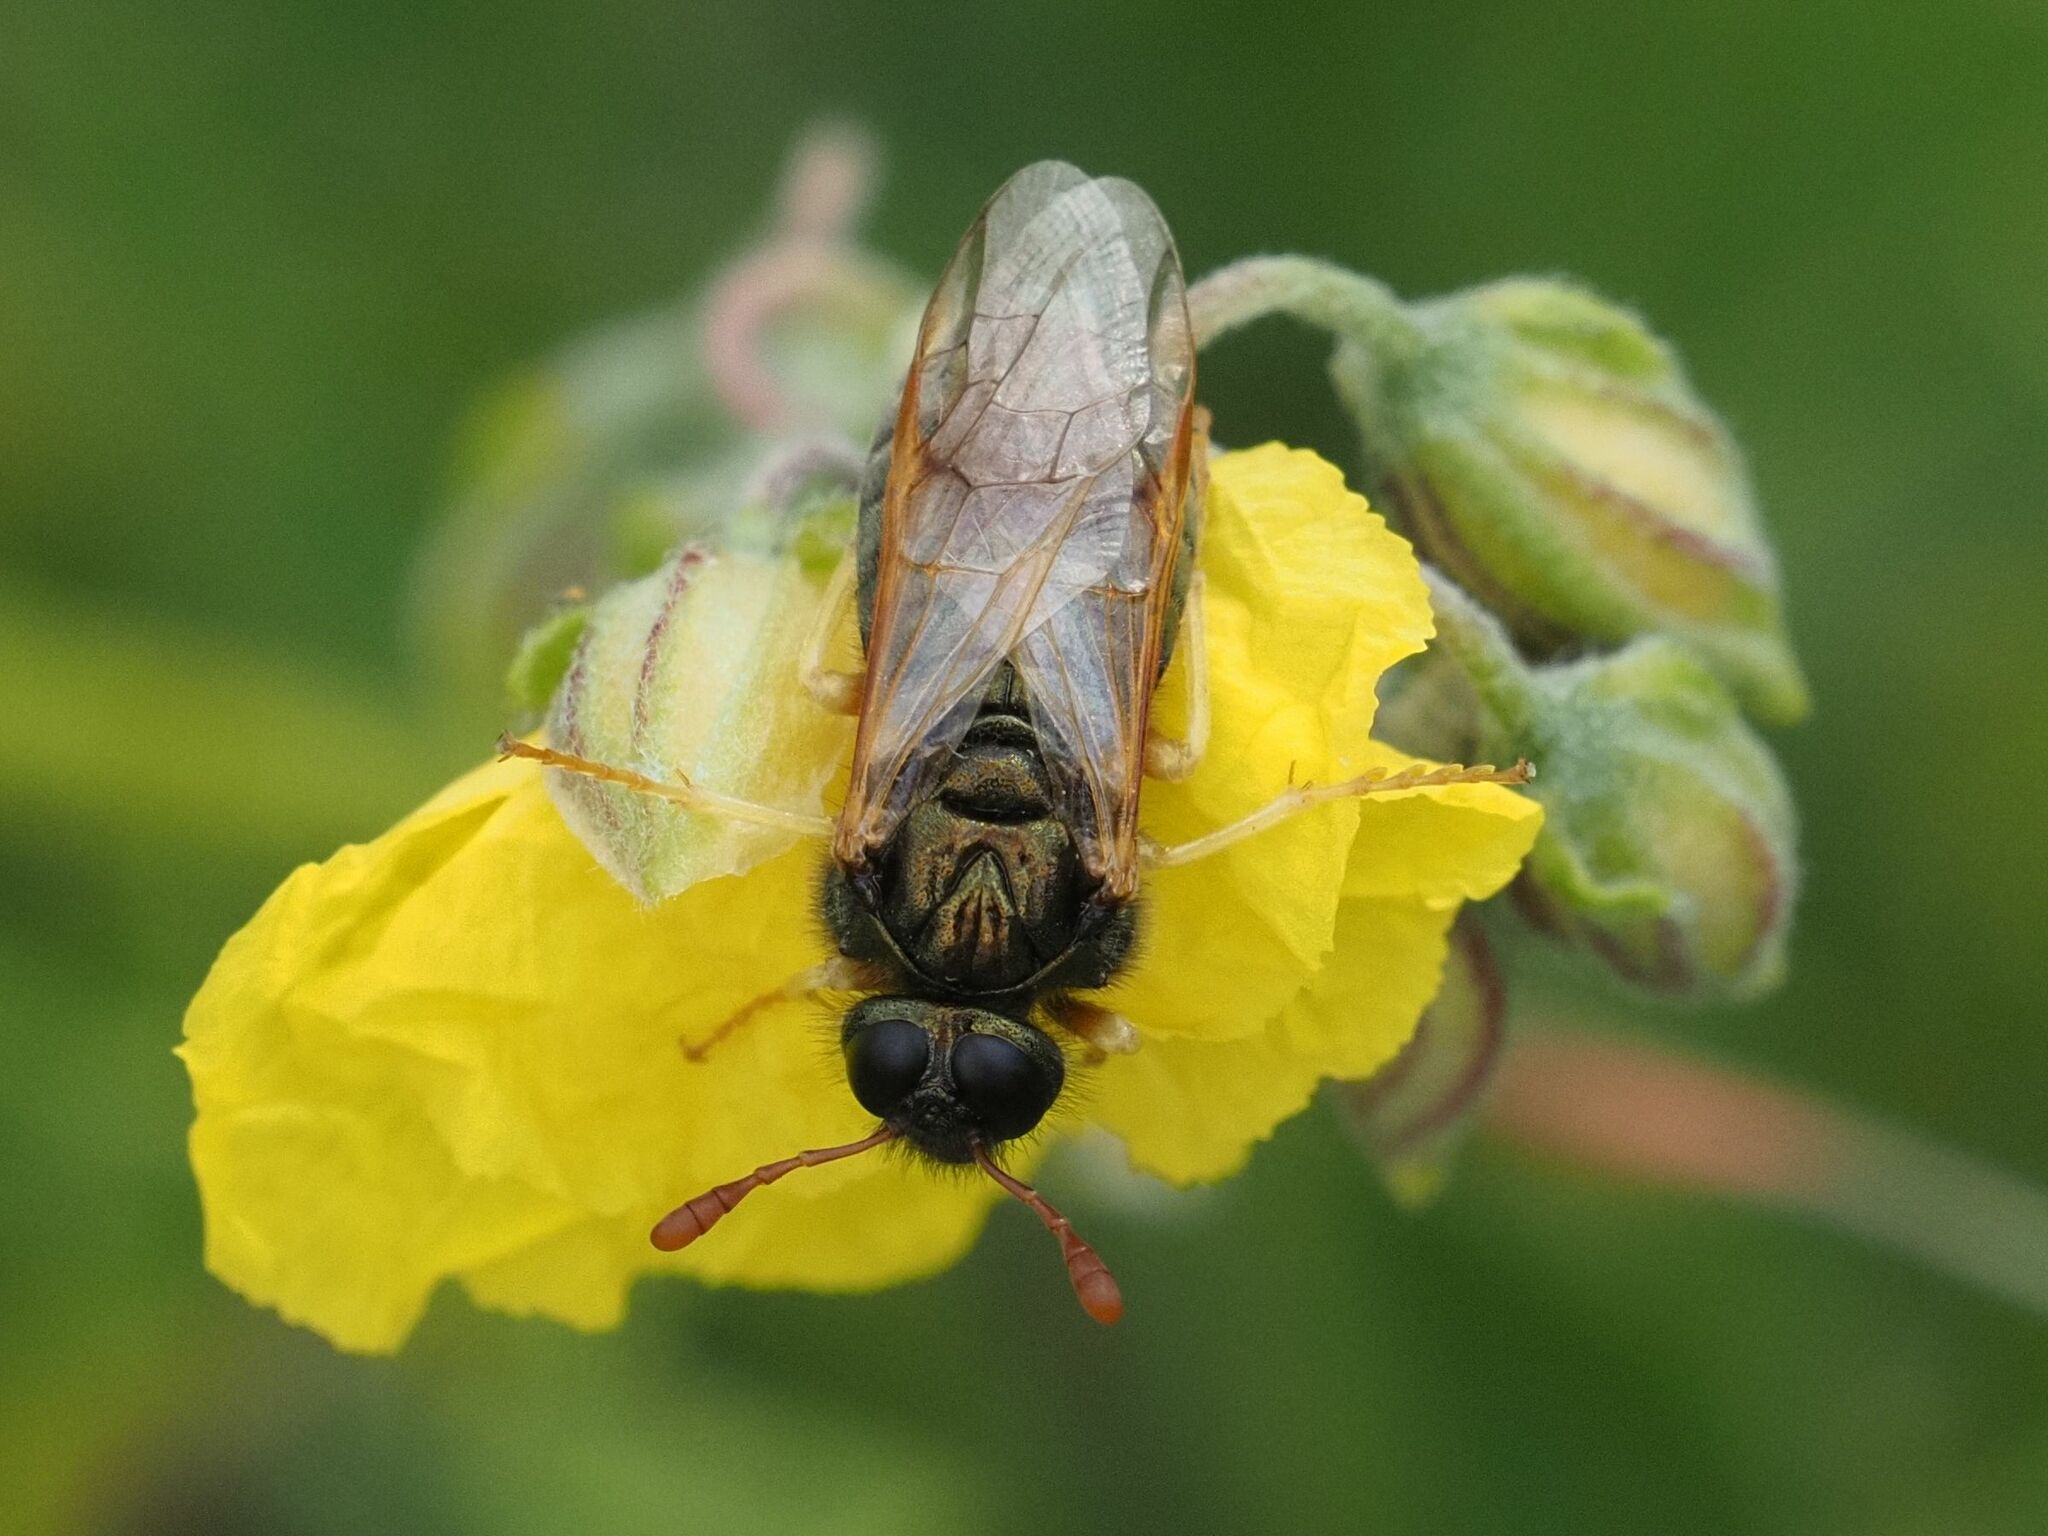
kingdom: Animalia
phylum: Arthropoda
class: Insecta
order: Hymenoptera
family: Cimbicidae
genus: Abia
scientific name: Abia nitens
